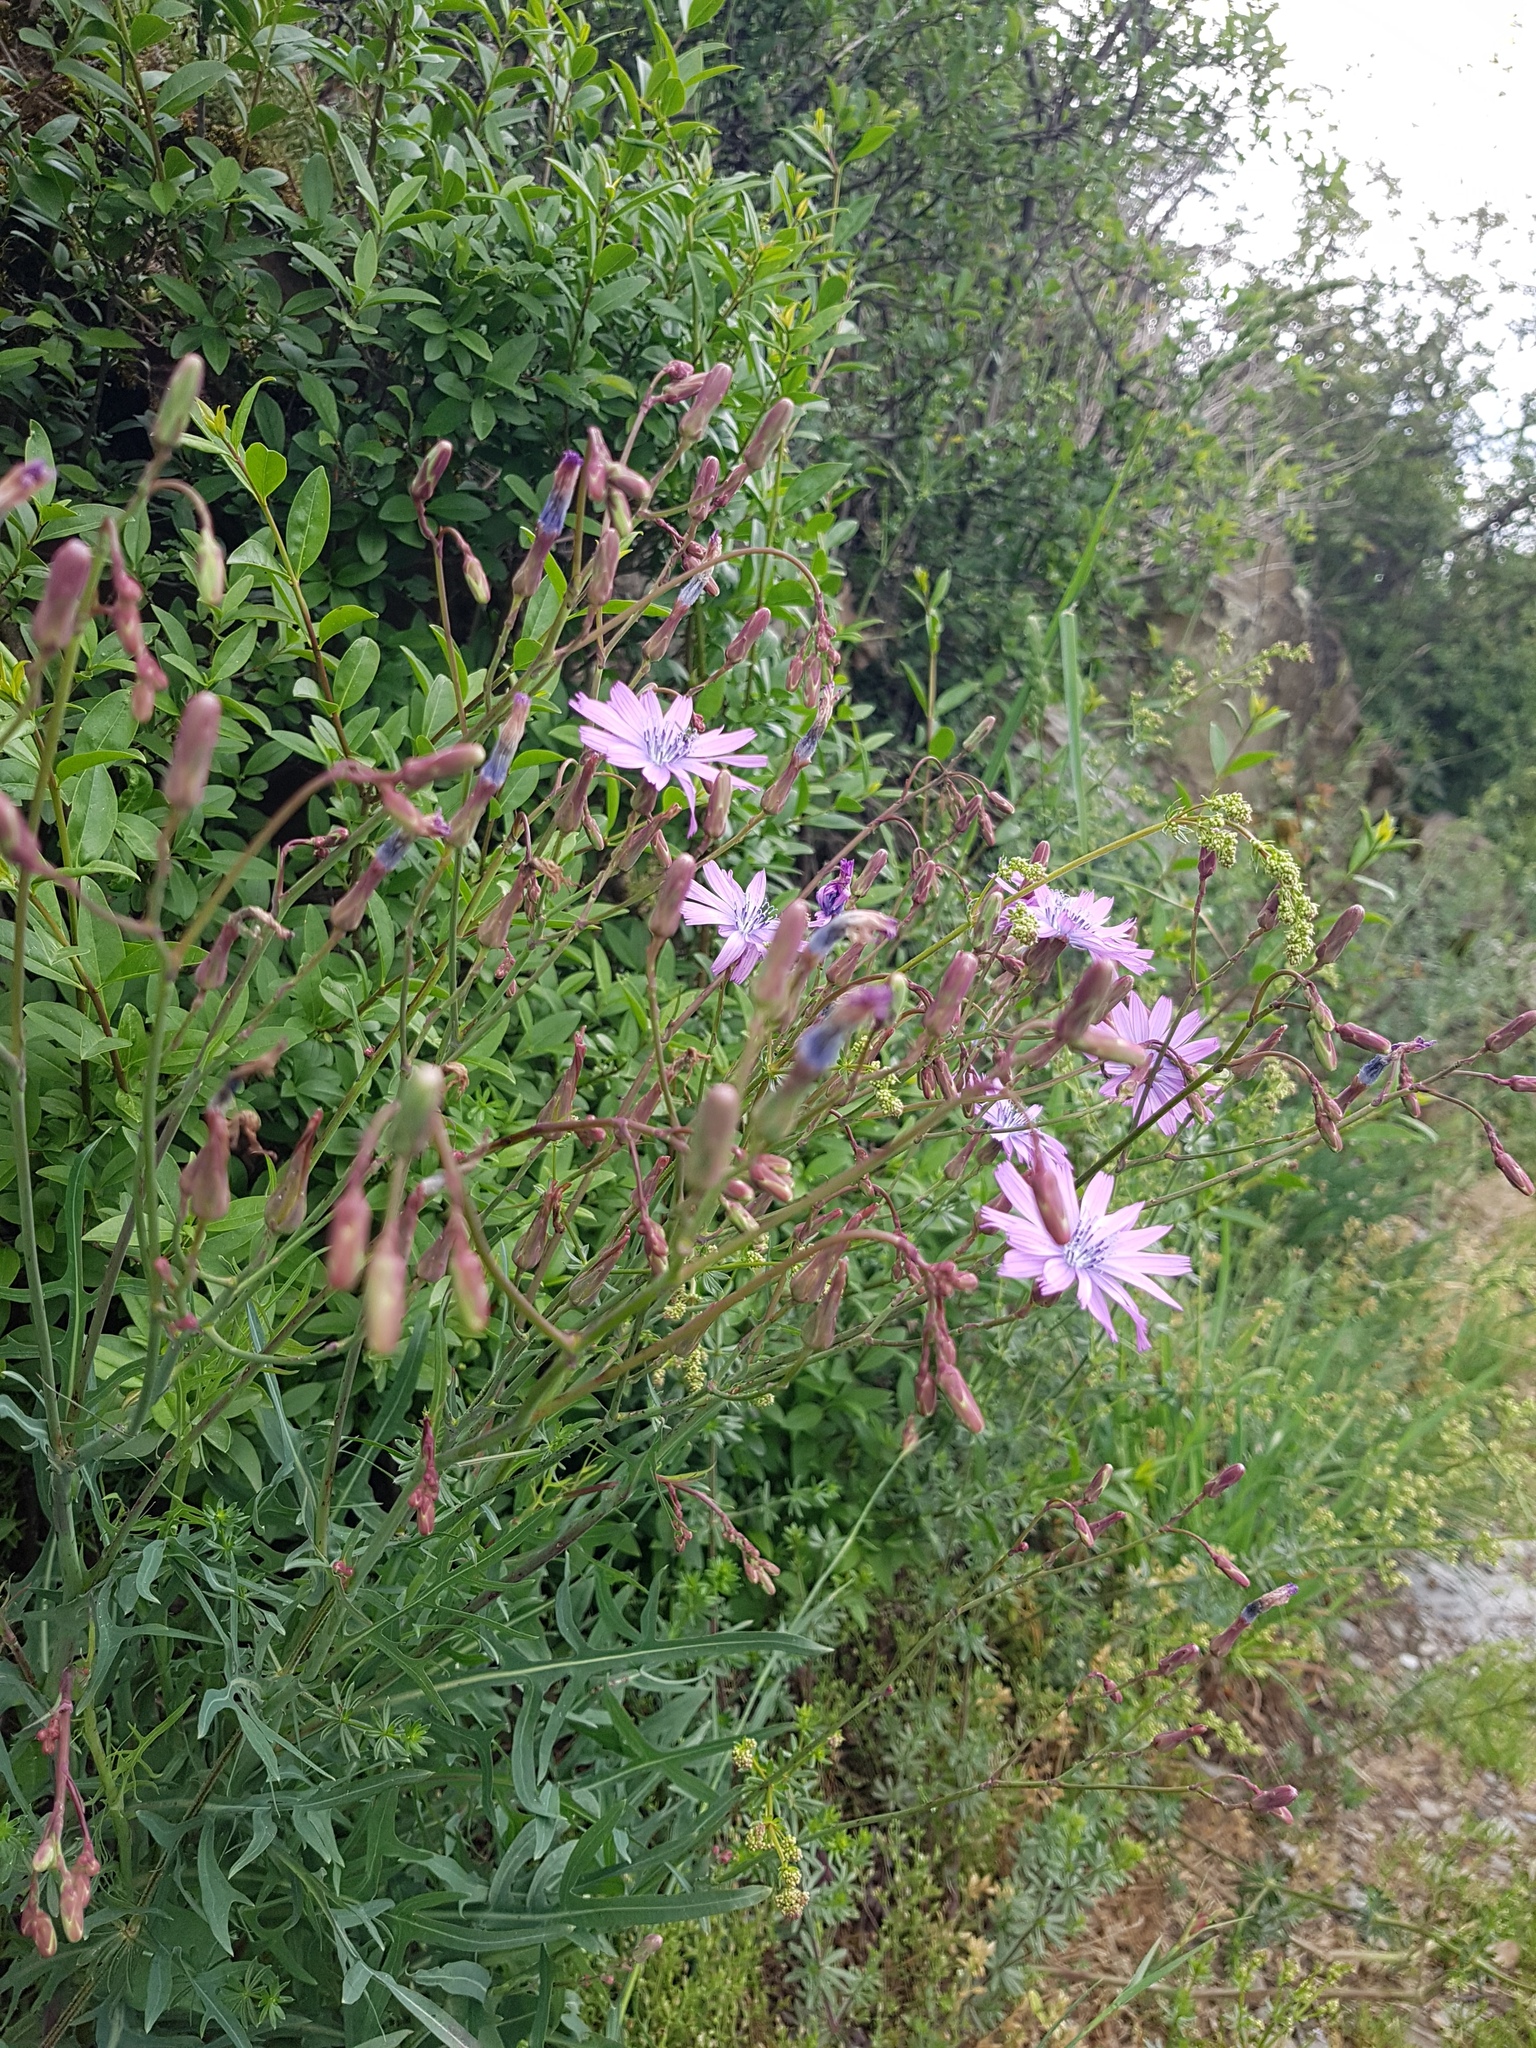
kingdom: Plantae
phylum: Tracheophyta
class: Magnoliopsida
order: Asterales
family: Asteraceae
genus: Lactuca
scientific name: Lactuca perennis
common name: Mountain lettuce
